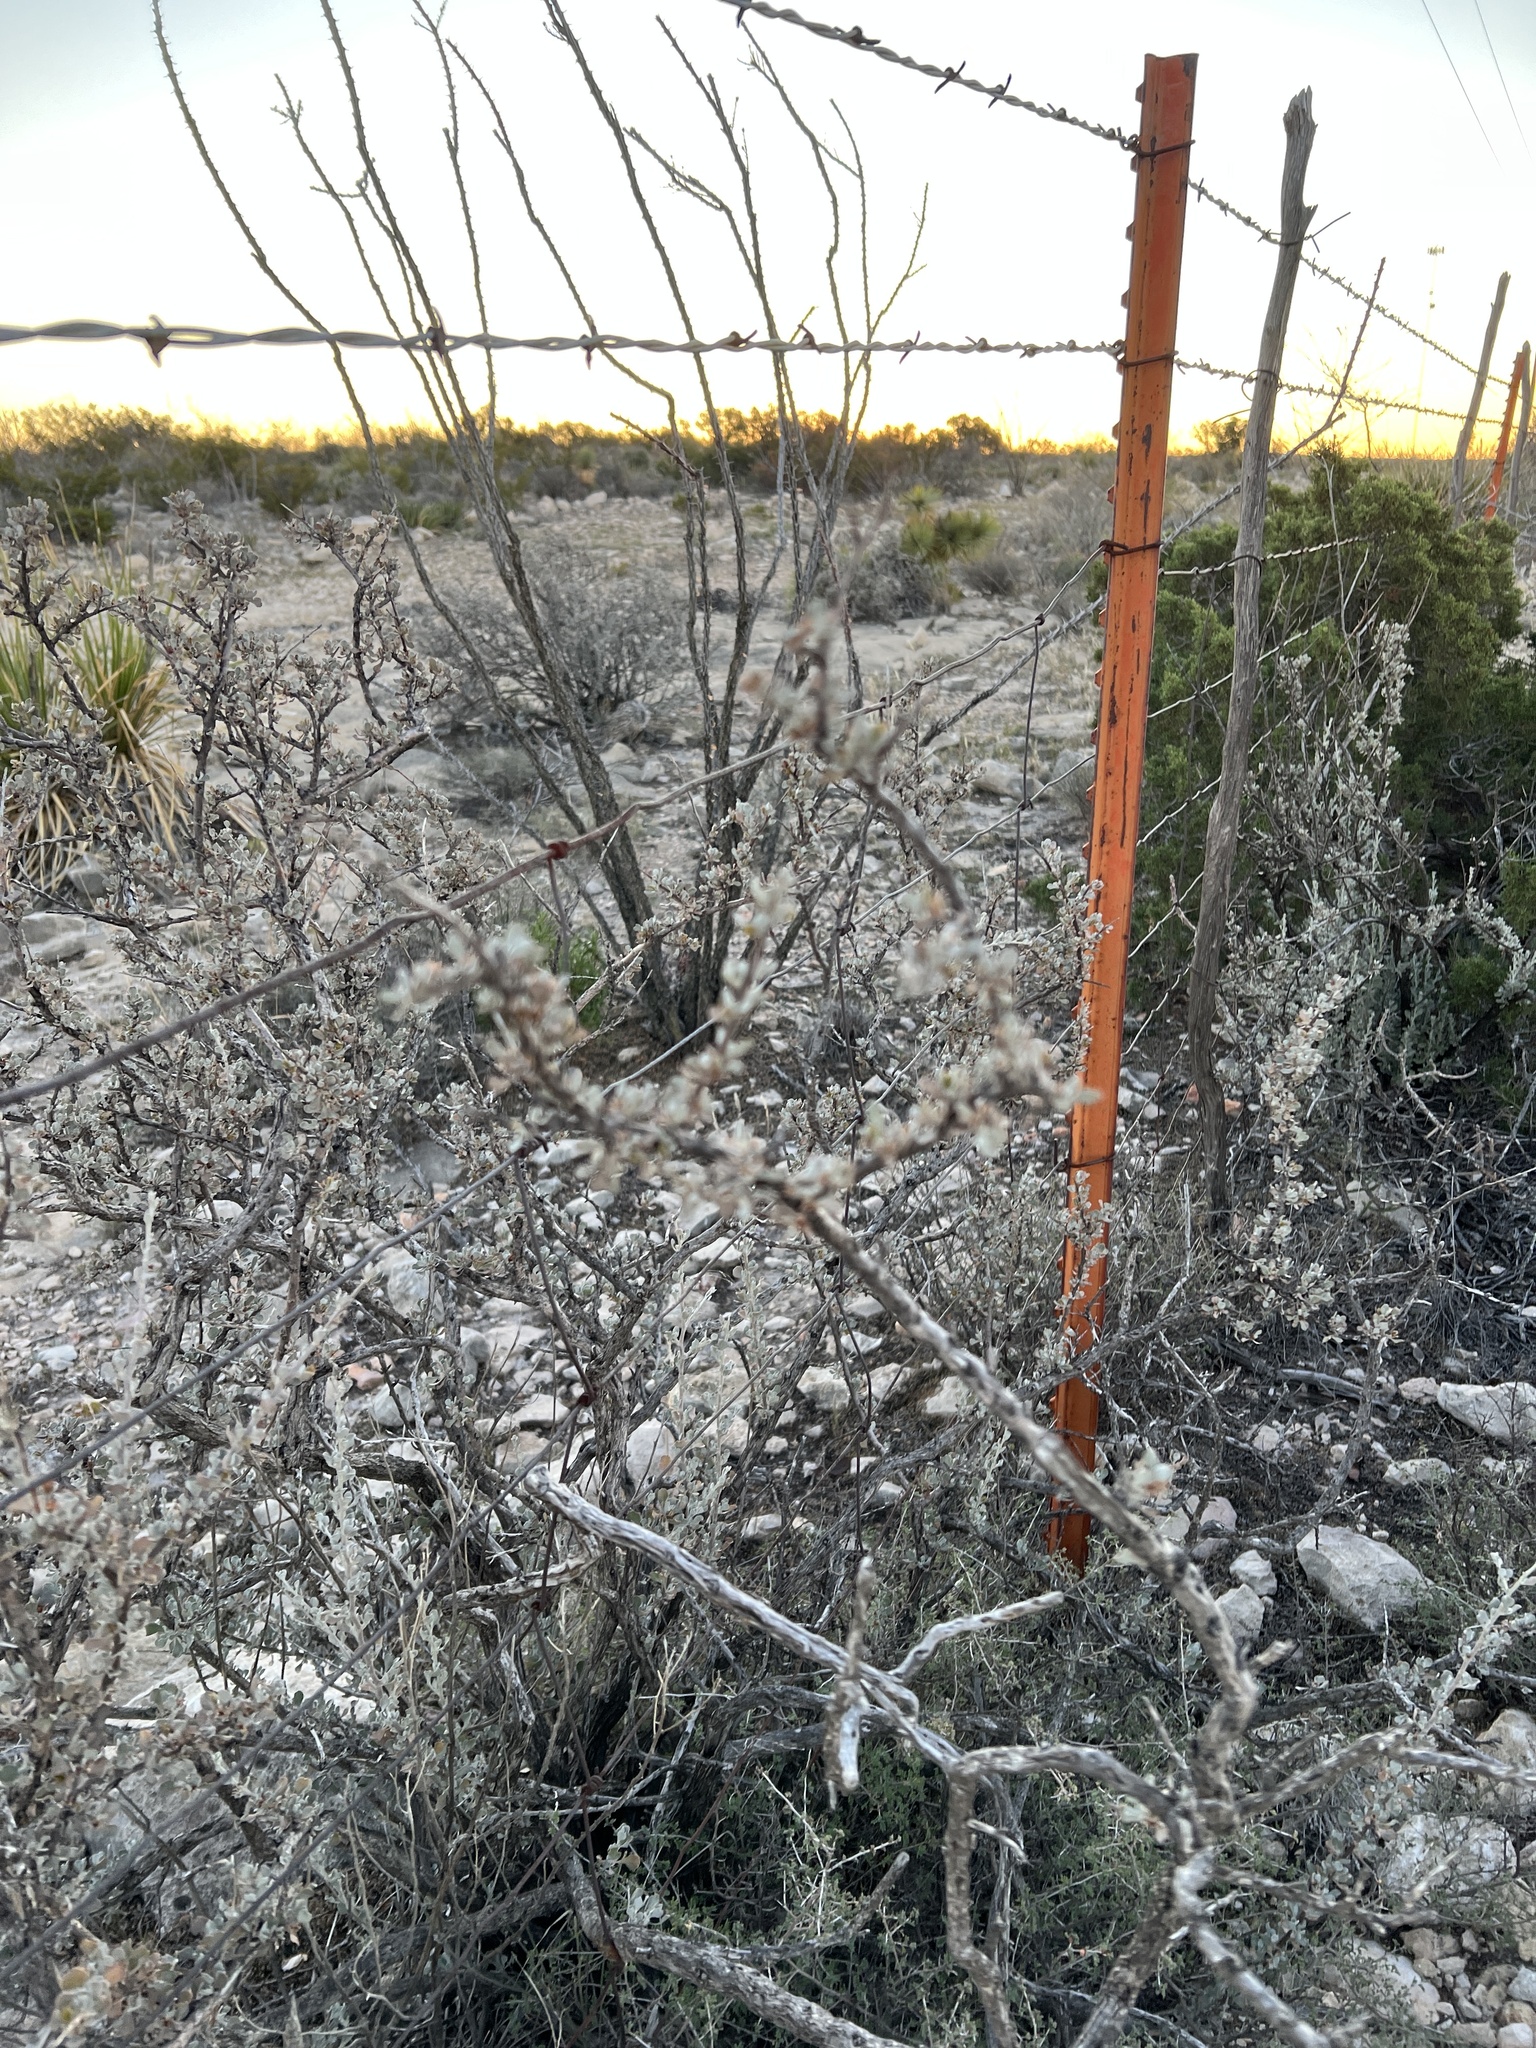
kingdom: Plantae
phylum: Tracheophyta
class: Magnoliopsida
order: Lamiales
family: Scrophulariaceae
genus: Leucophyllum
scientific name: Leucophyllum minus
